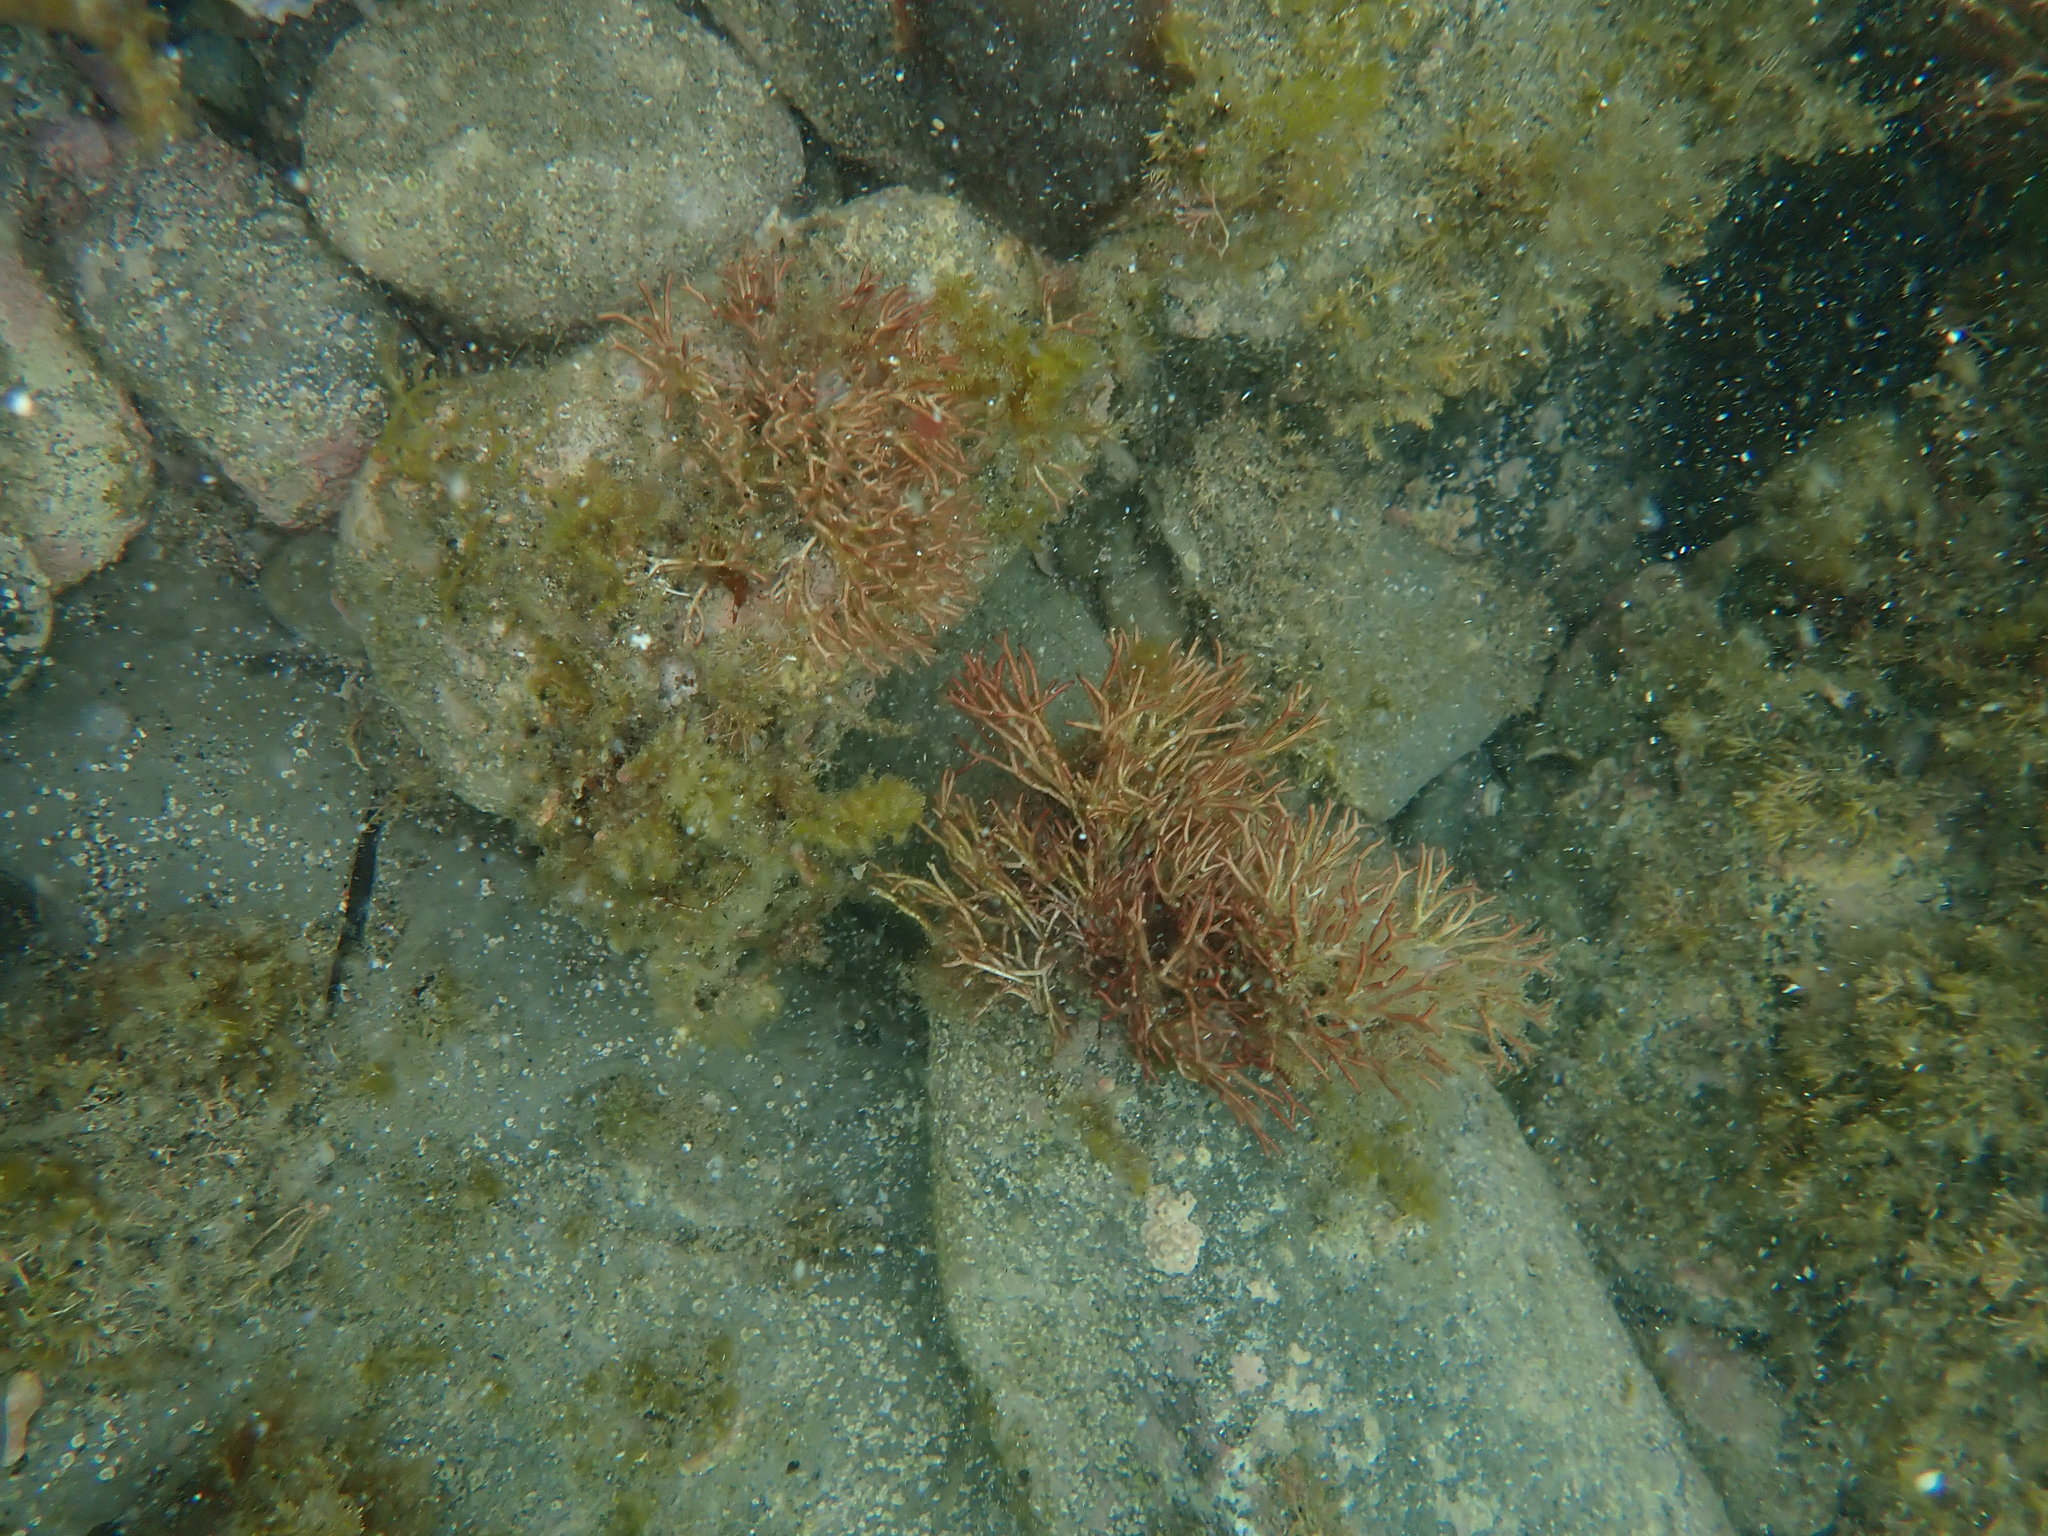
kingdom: Plantae
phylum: Rhodophyta
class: Florideophyceae
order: Nemaliales
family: Liagoraceae
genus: Liagora
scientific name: Liagora harveyana
